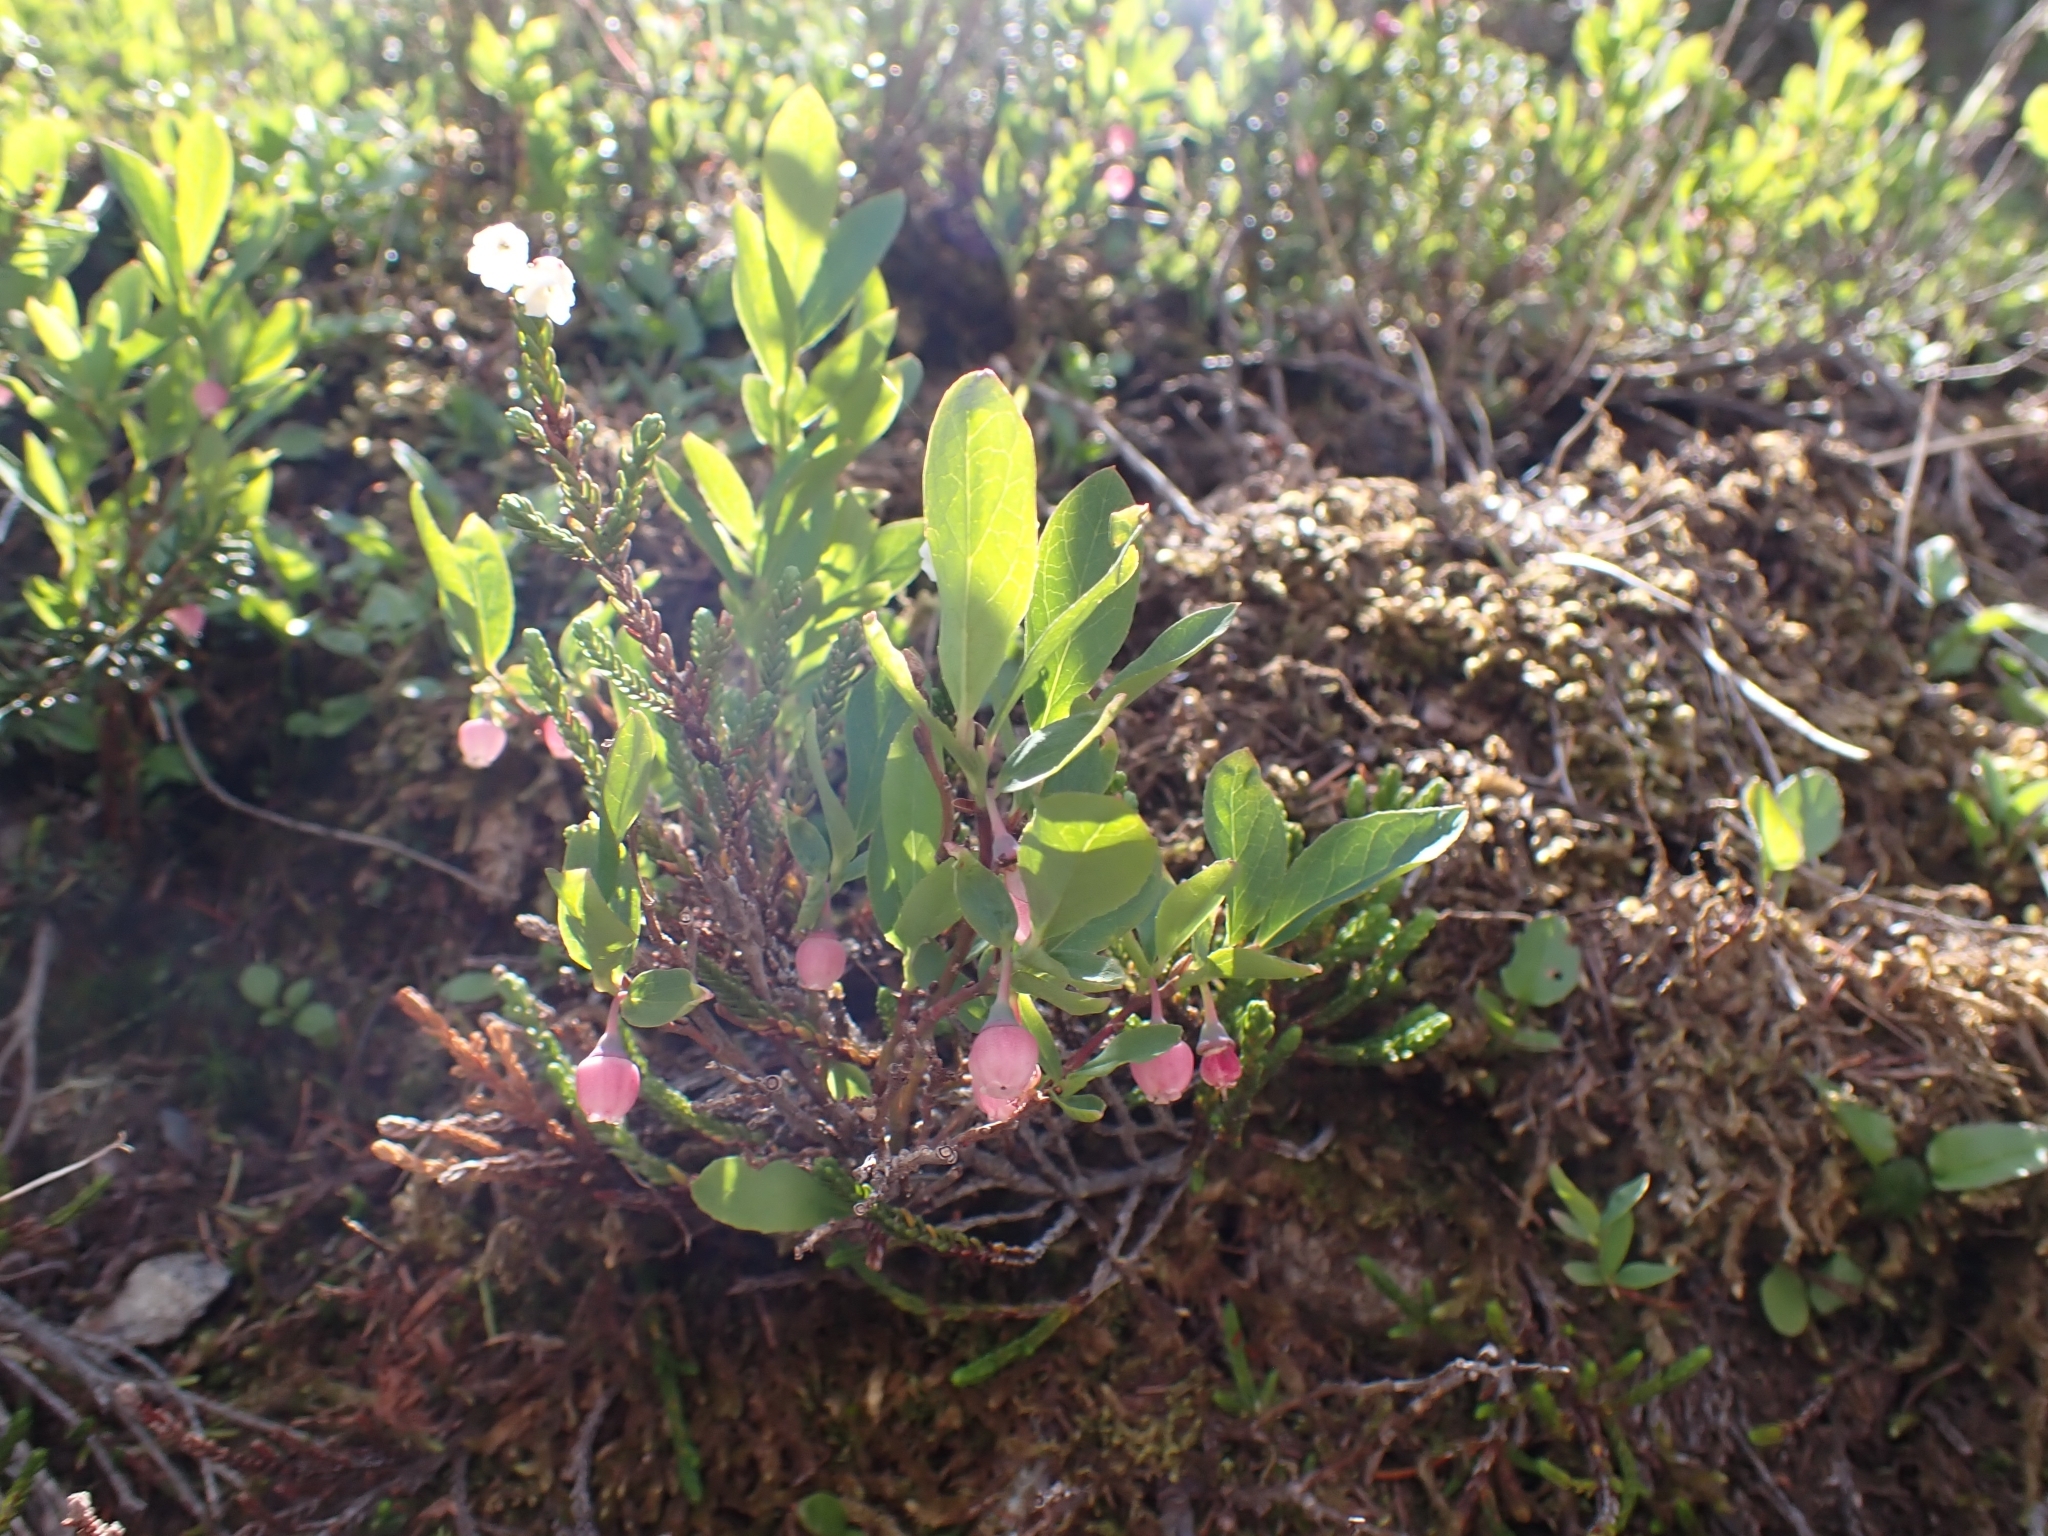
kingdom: Plantae
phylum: Tracheophyta
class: Magnoliopsida
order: Ericales
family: Ericaceae
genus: Vaccinium
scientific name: Vaccinium deliciosum
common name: Cascade bilberry
